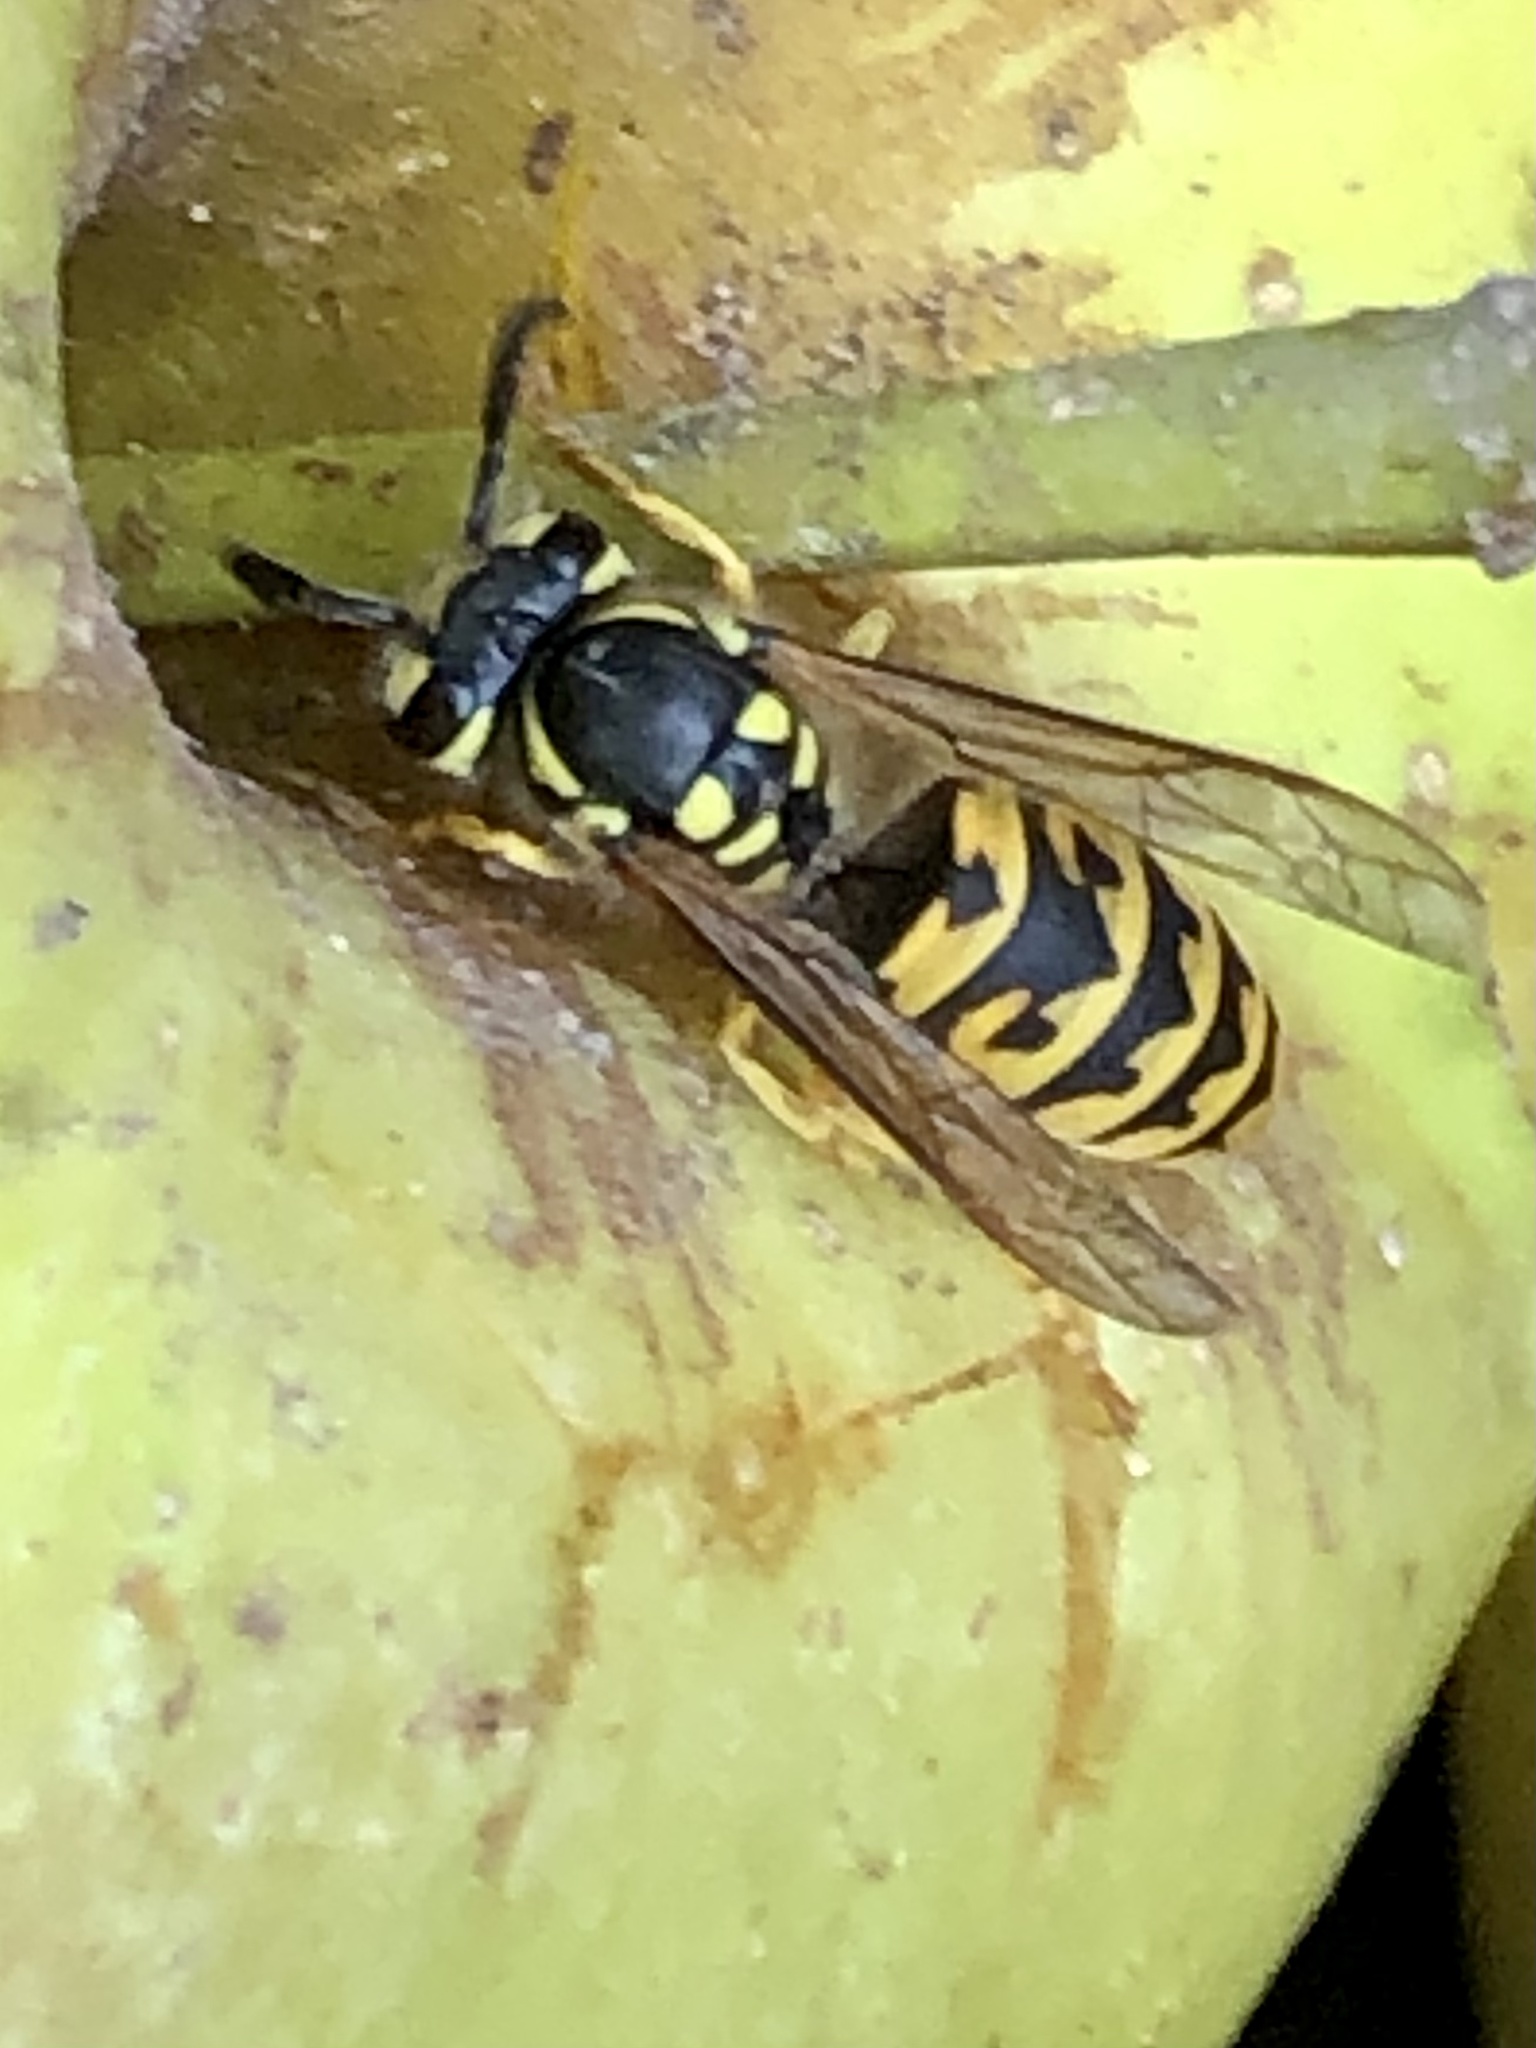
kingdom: Animalia
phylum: Arthropoda
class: Insecta
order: Hymenoptera
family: Vespidae
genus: Vespula
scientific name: Vespula germanica
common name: German wasp
